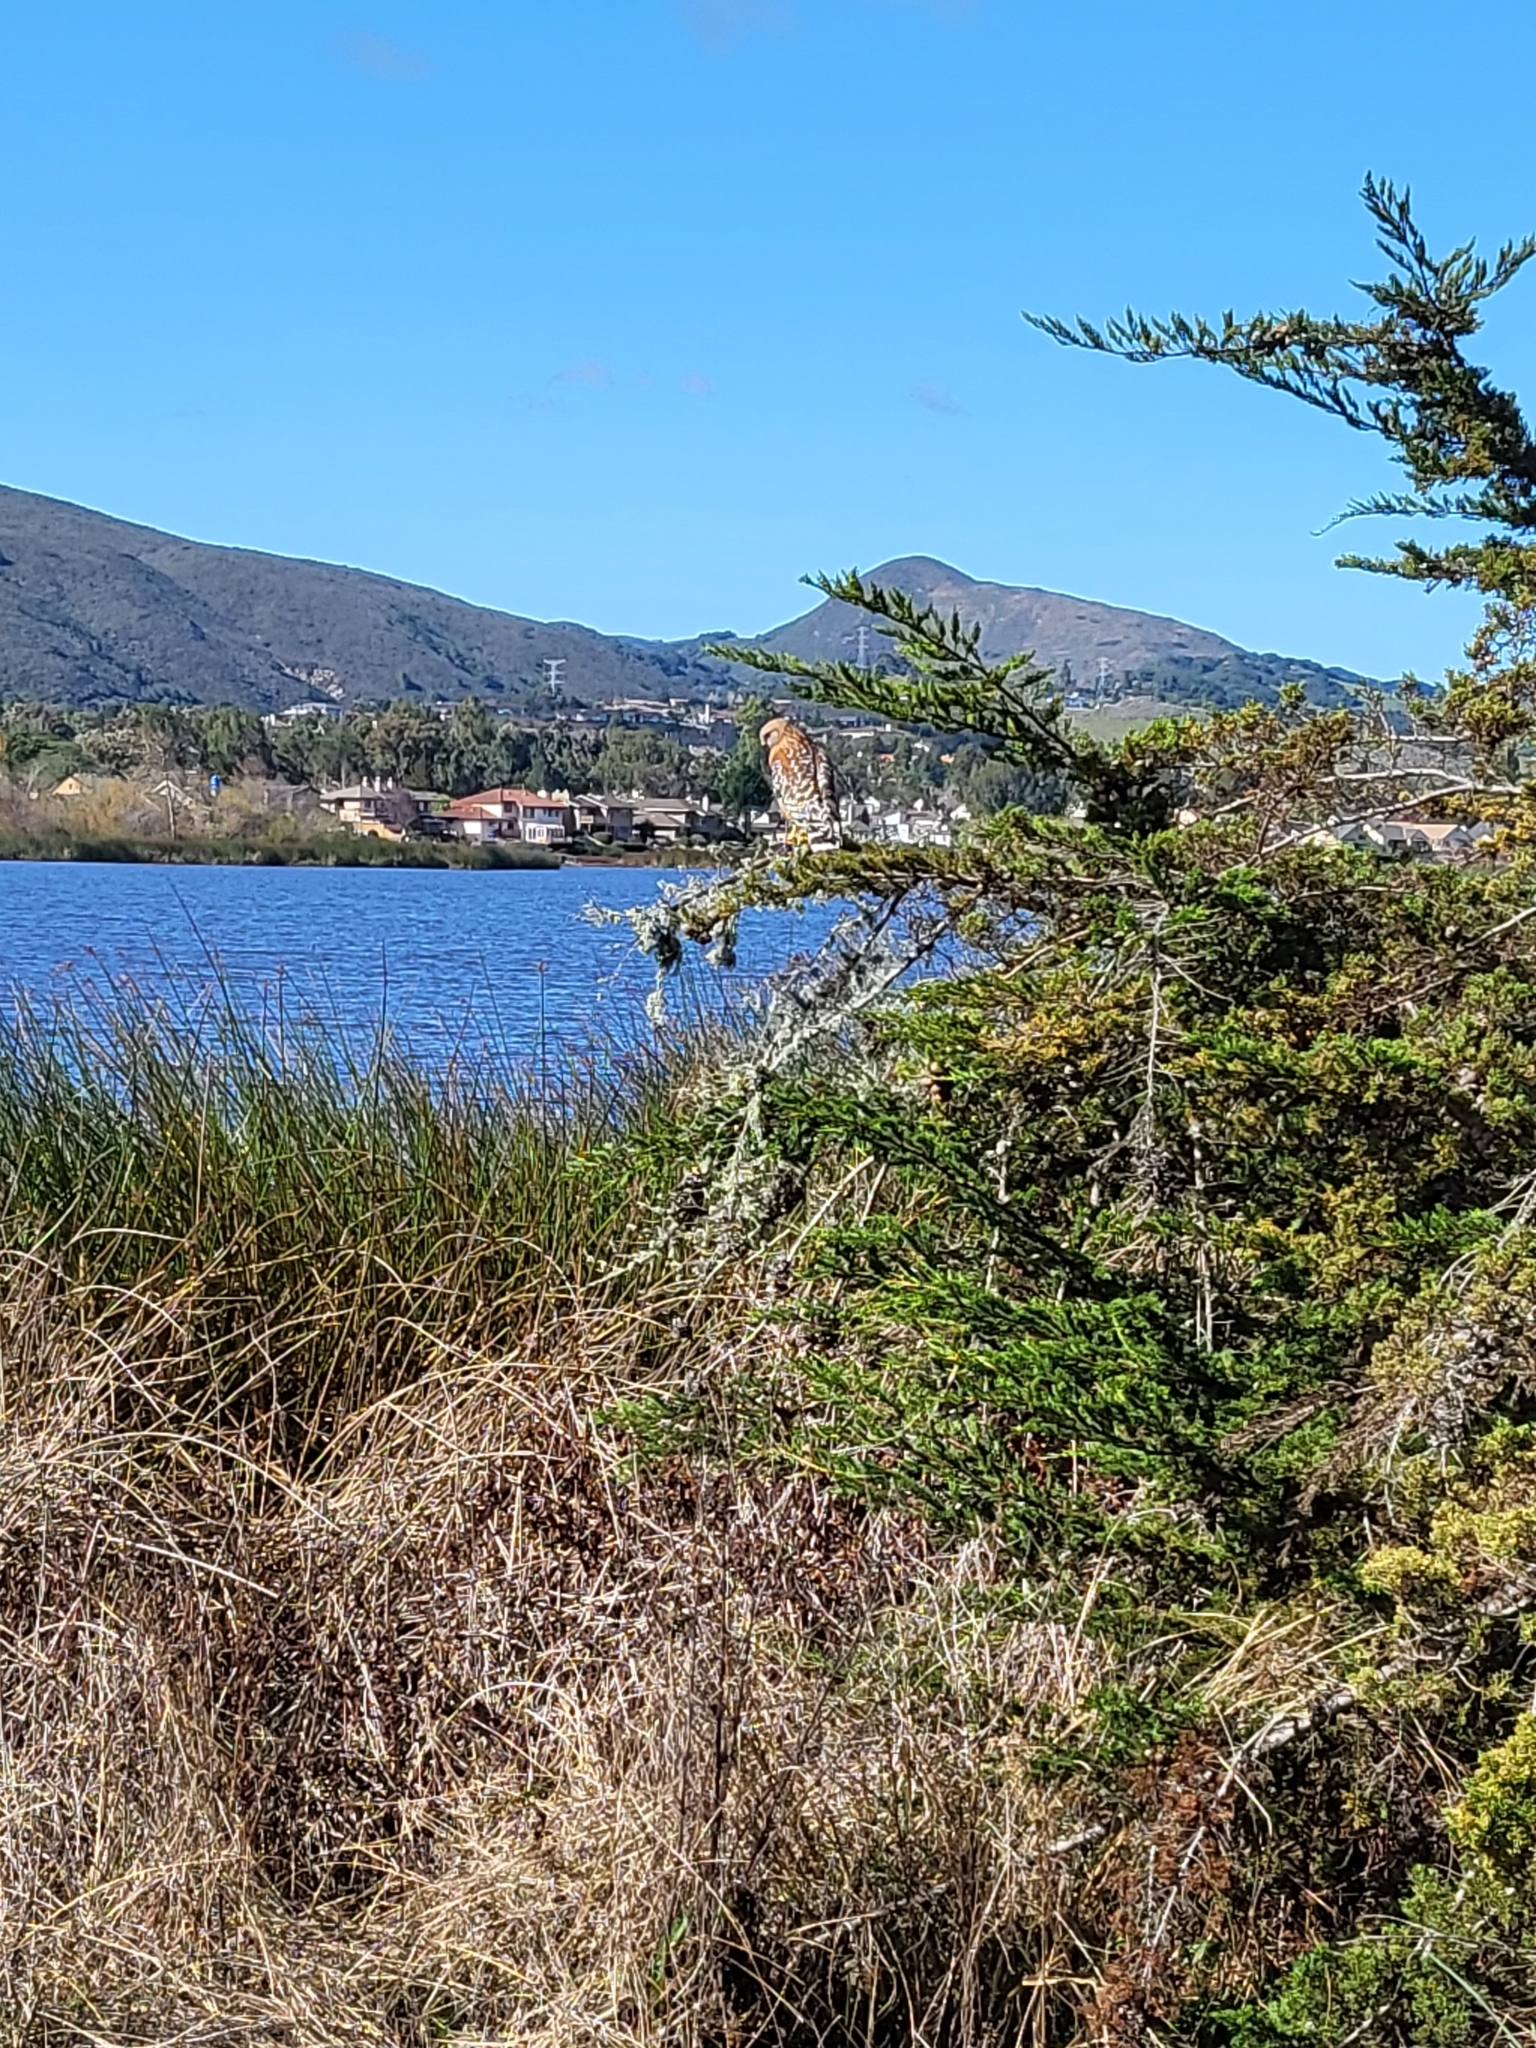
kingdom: Animalia
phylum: Chordata
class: Aves
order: Accipitriformes
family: Accipitridae
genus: Buteo
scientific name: Buteo lineatus
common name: Red-shouldered hawk
